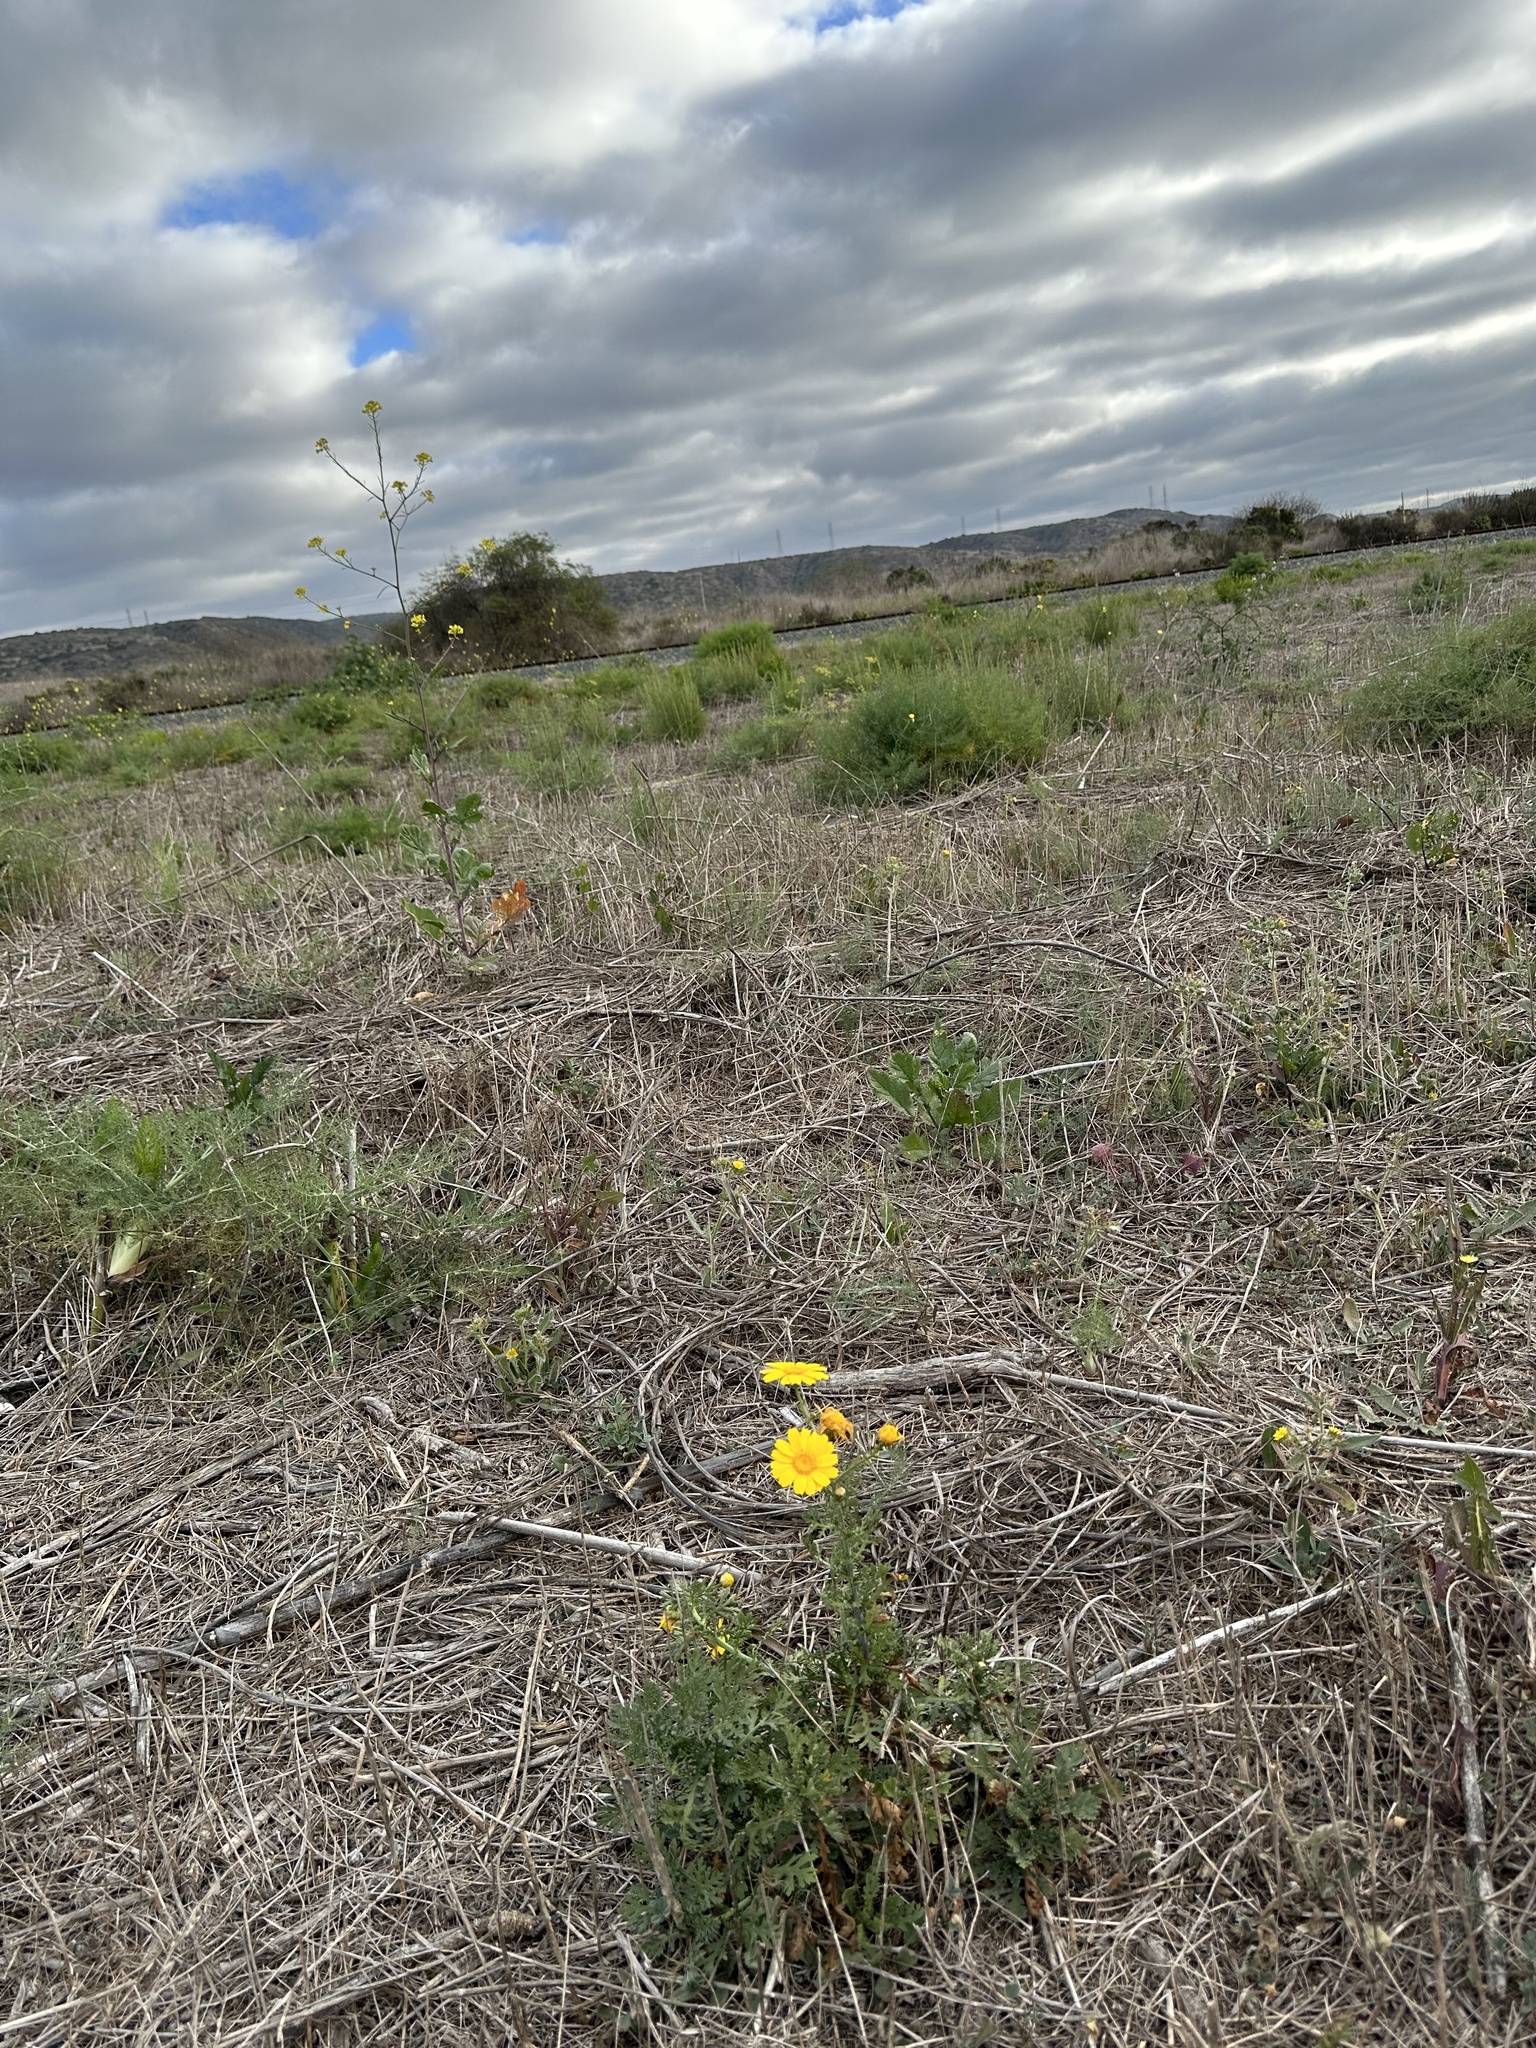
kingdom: Plantae
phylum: Tracheophyta
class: Magnoliopsida
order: Asterales
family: Asteraceae
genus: Glebionis
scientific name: Glebionis coronaria
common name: Crowndaisy
